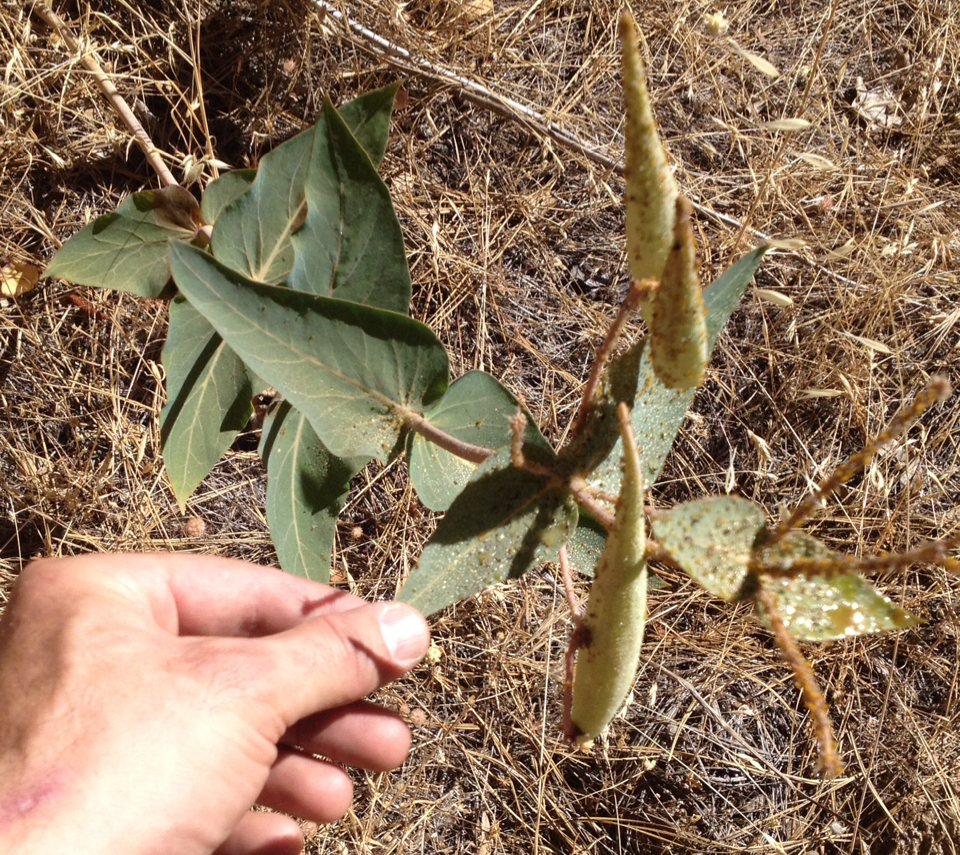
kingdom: Plantae
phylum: Tracheophyta
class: Magnoliopsida
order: Gentianales
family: Apocynaceae
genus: Asclepias
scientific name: Asclepias cordifolia
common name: Purple milkweed
